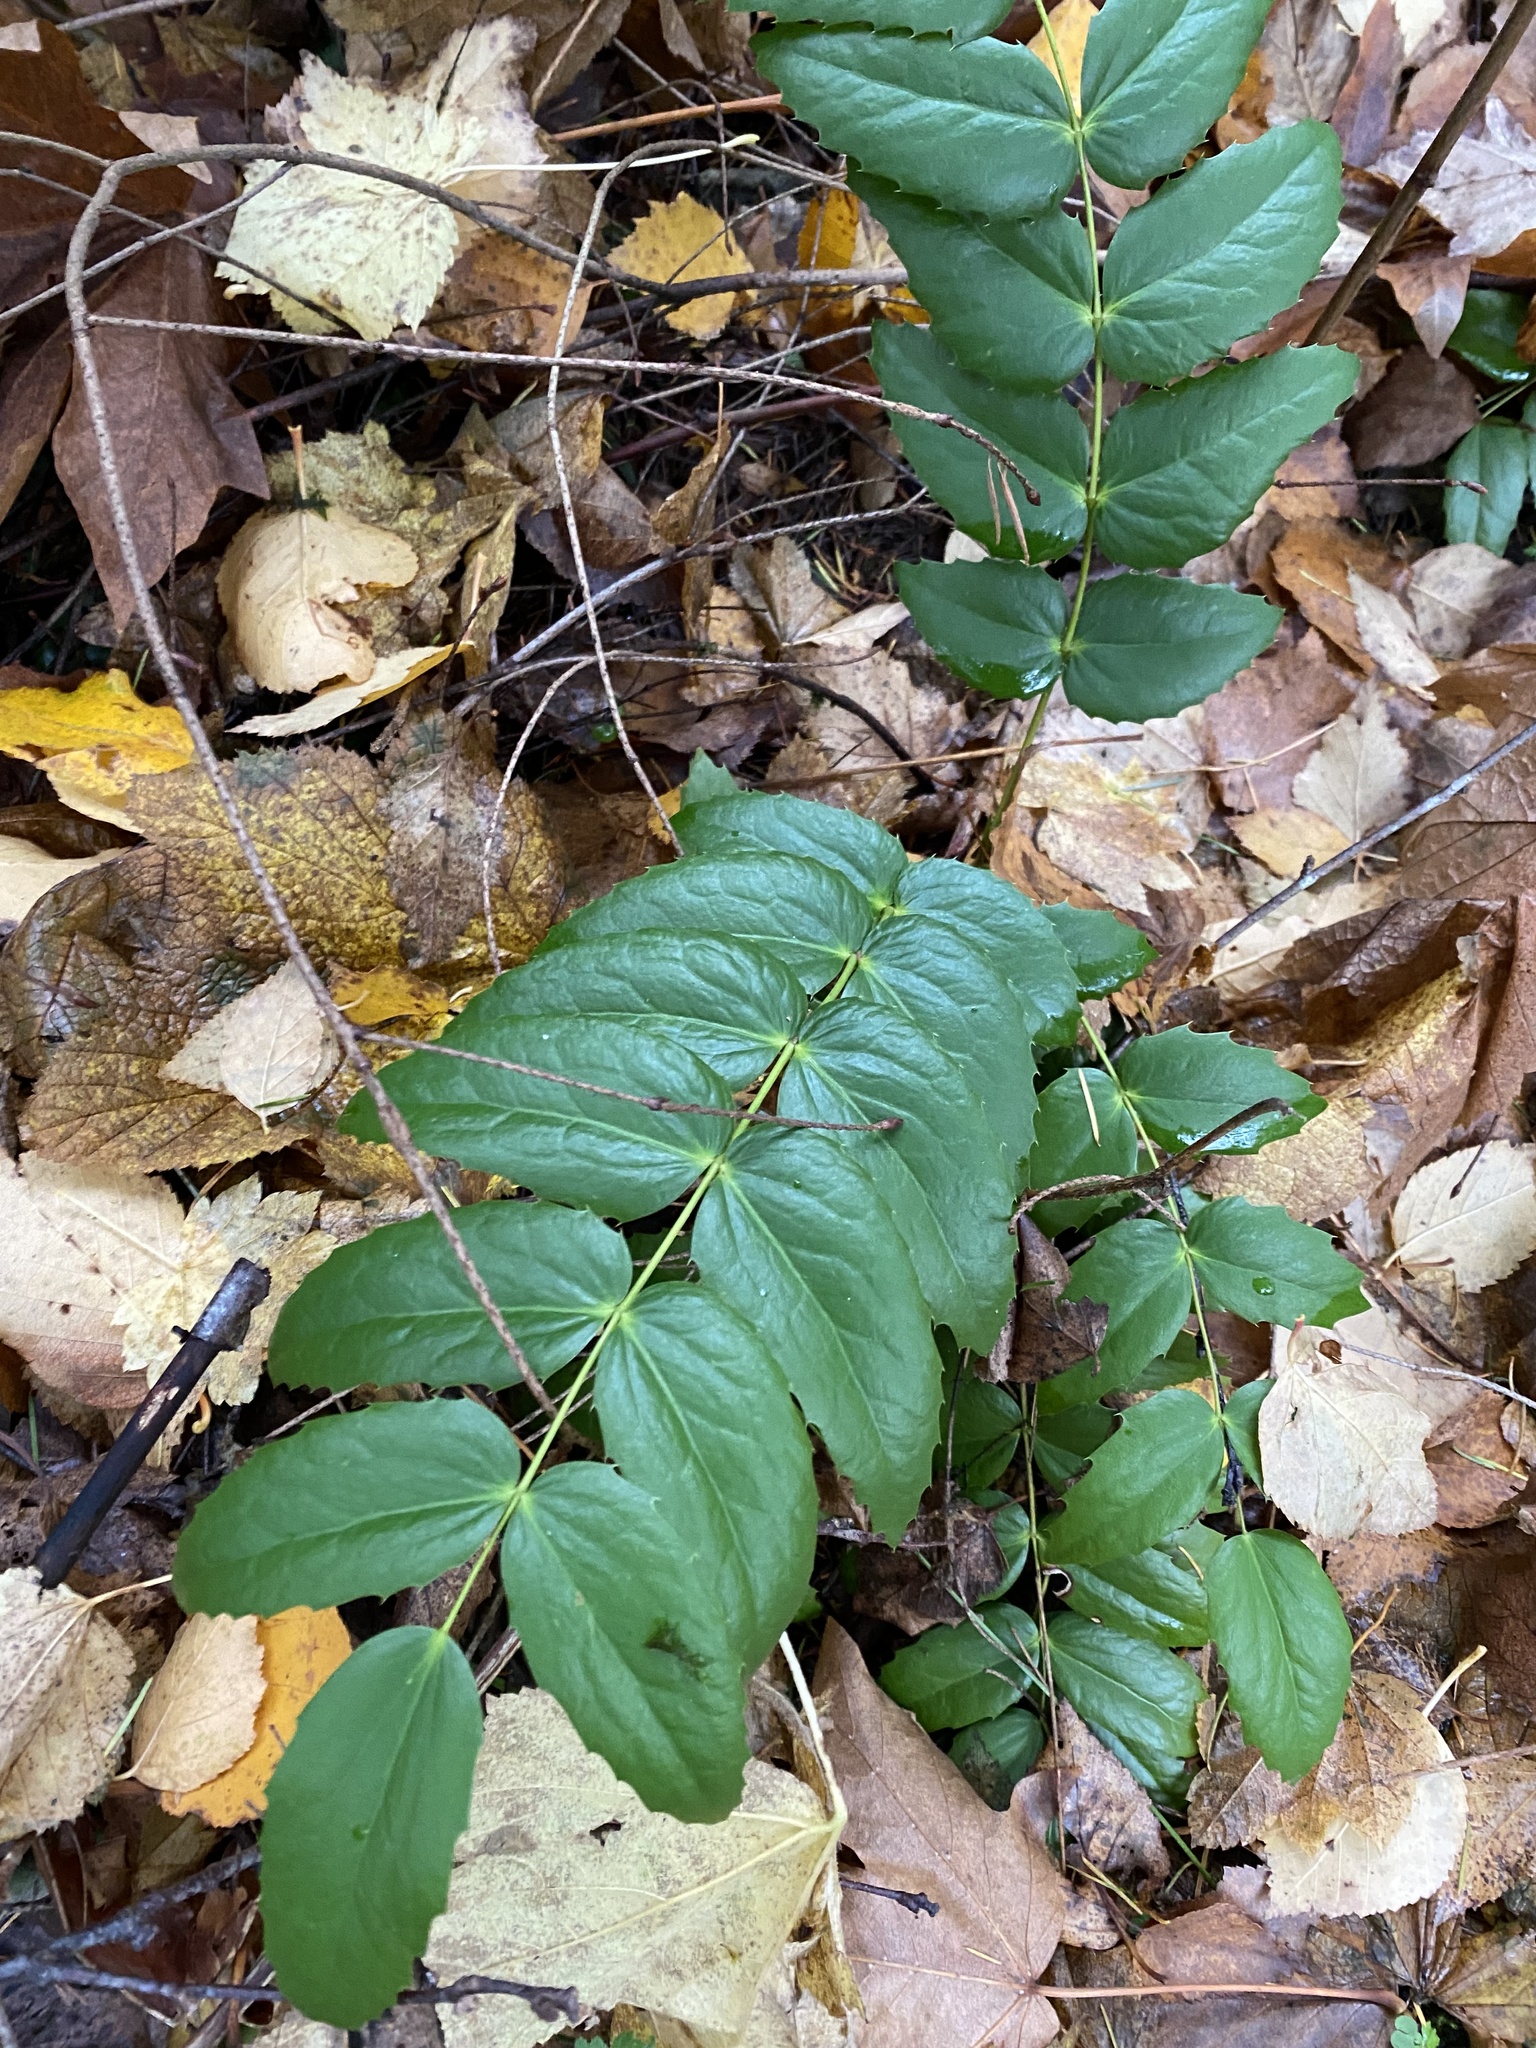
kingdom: Plantae
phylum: Tracheophyta
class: Magnoliopsida
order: Ranunculales
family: Berberidaceae
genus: Mahonia
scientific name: Mahonia nervosa
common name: Cascade oregon-grape
